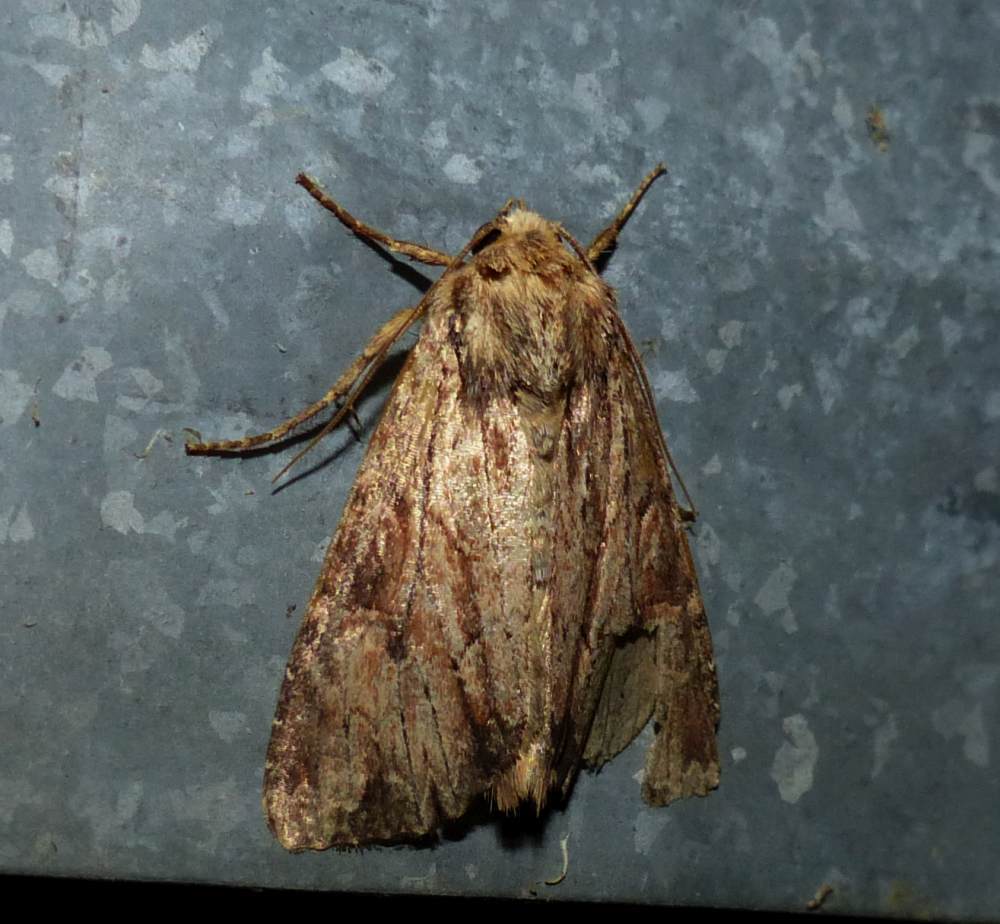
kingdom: Animalia
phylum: Arthropoda
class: Insecta
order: Lepidoptera
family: Noctuidae
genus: Apamea
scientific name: Apamea lignicolora
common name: Wood-colored apamea moth
